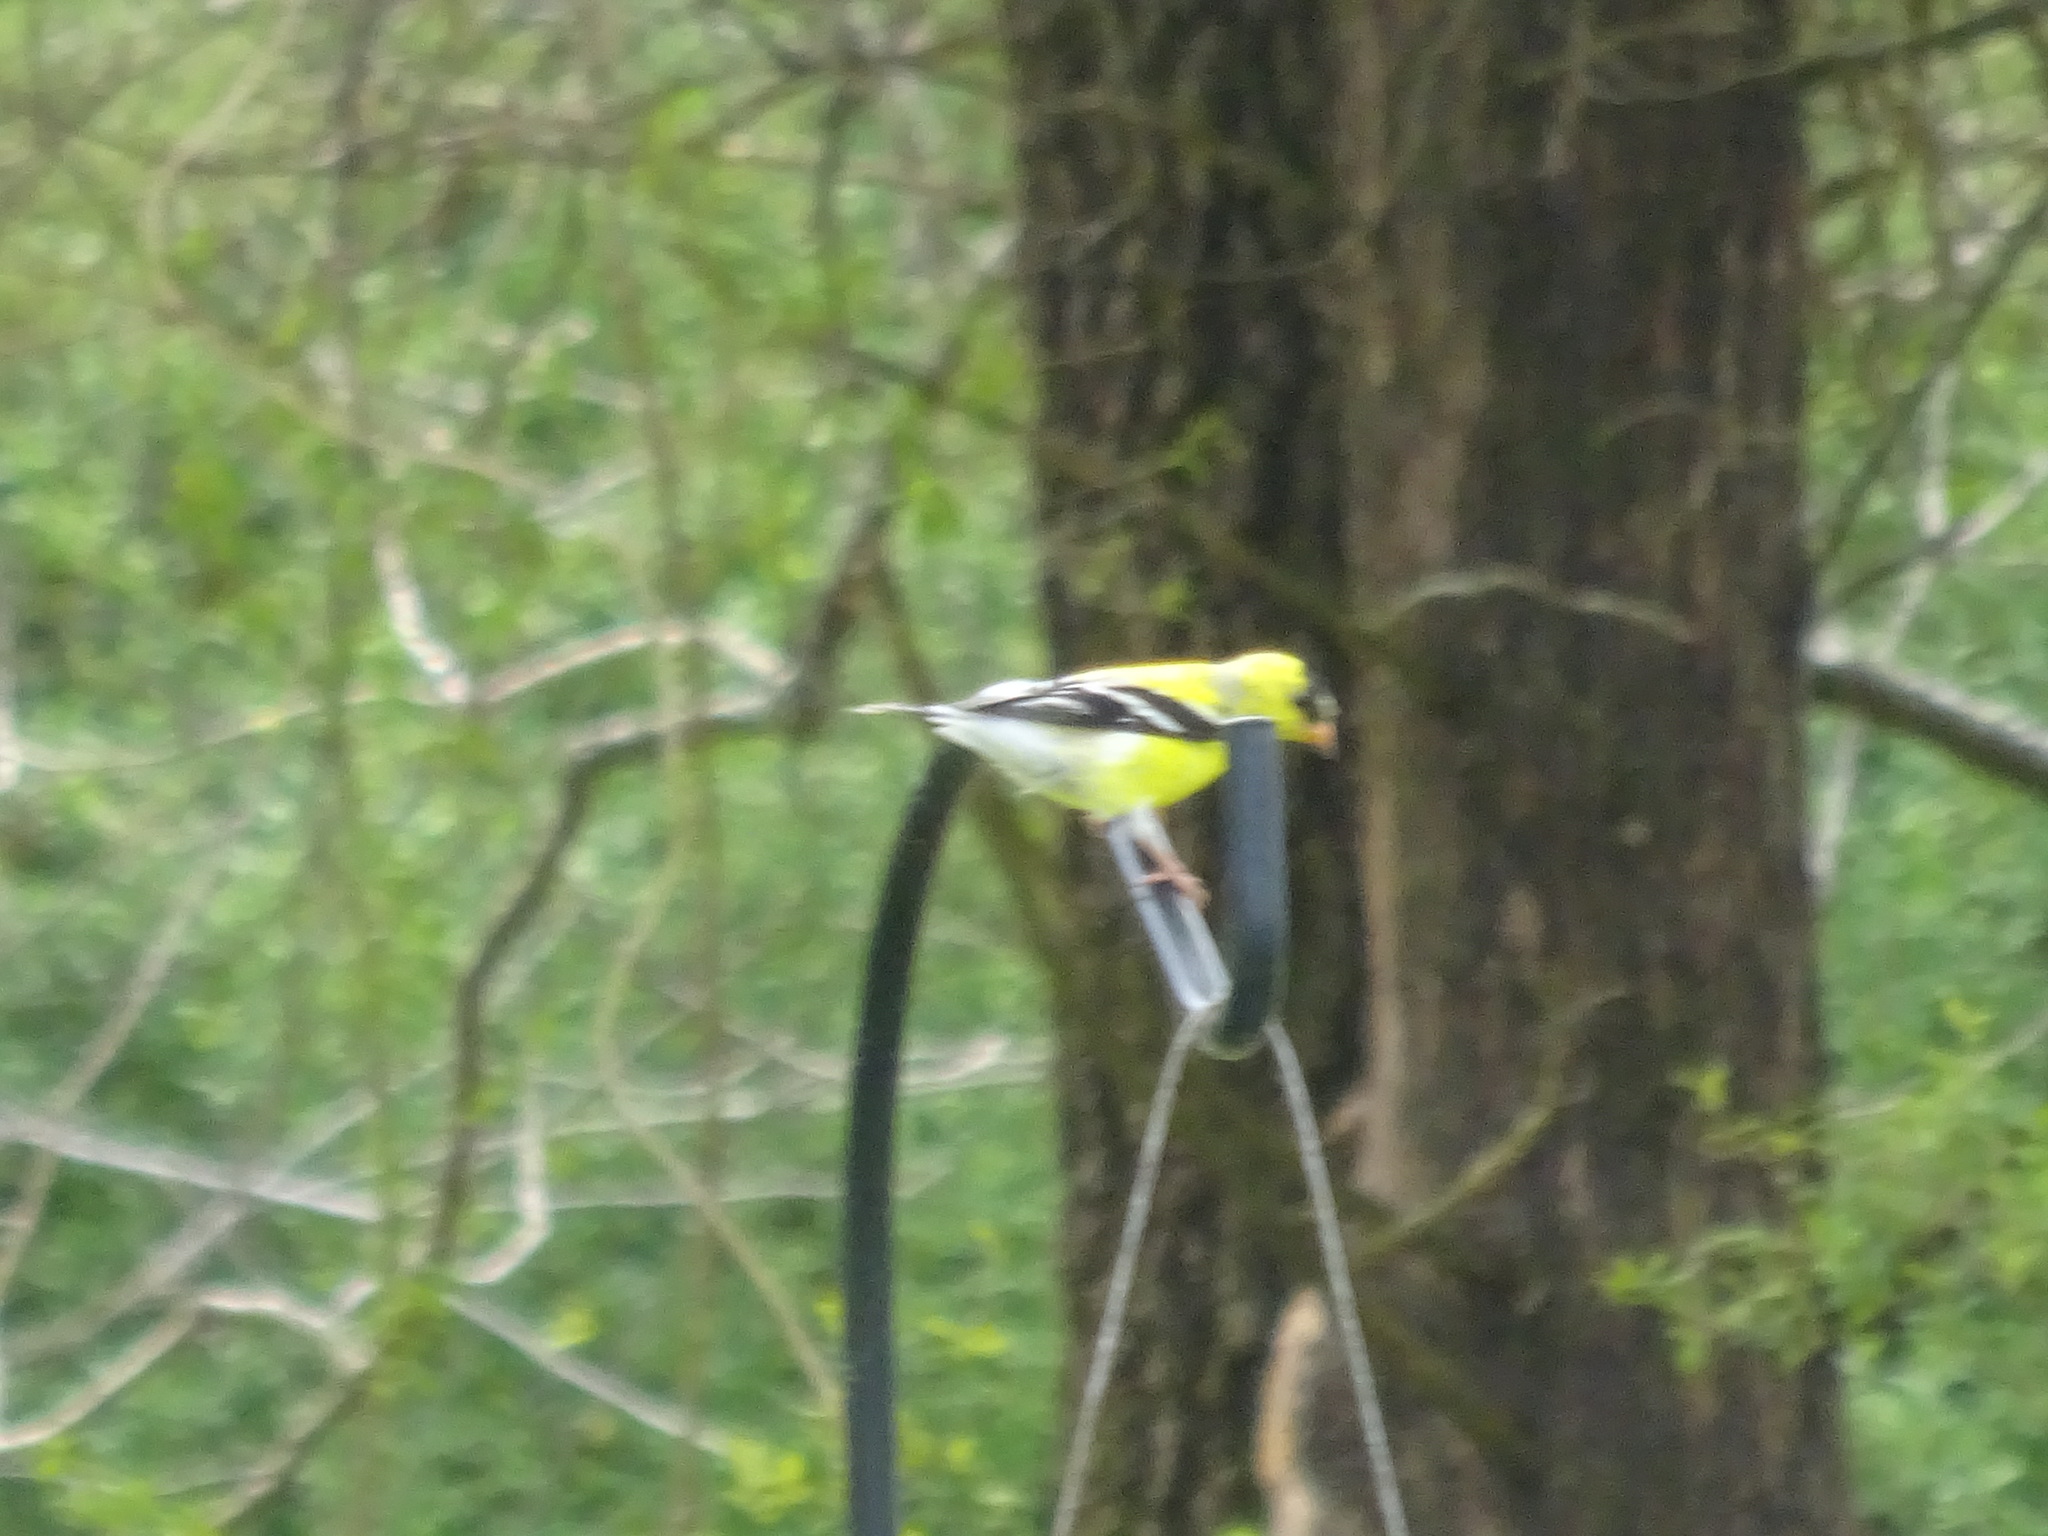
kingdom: Animalia
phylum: Chordata
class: Aves
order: Passeriformes
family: Fringillidae
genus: Spinus
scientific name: Spinus tristis
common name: American goldfinch
